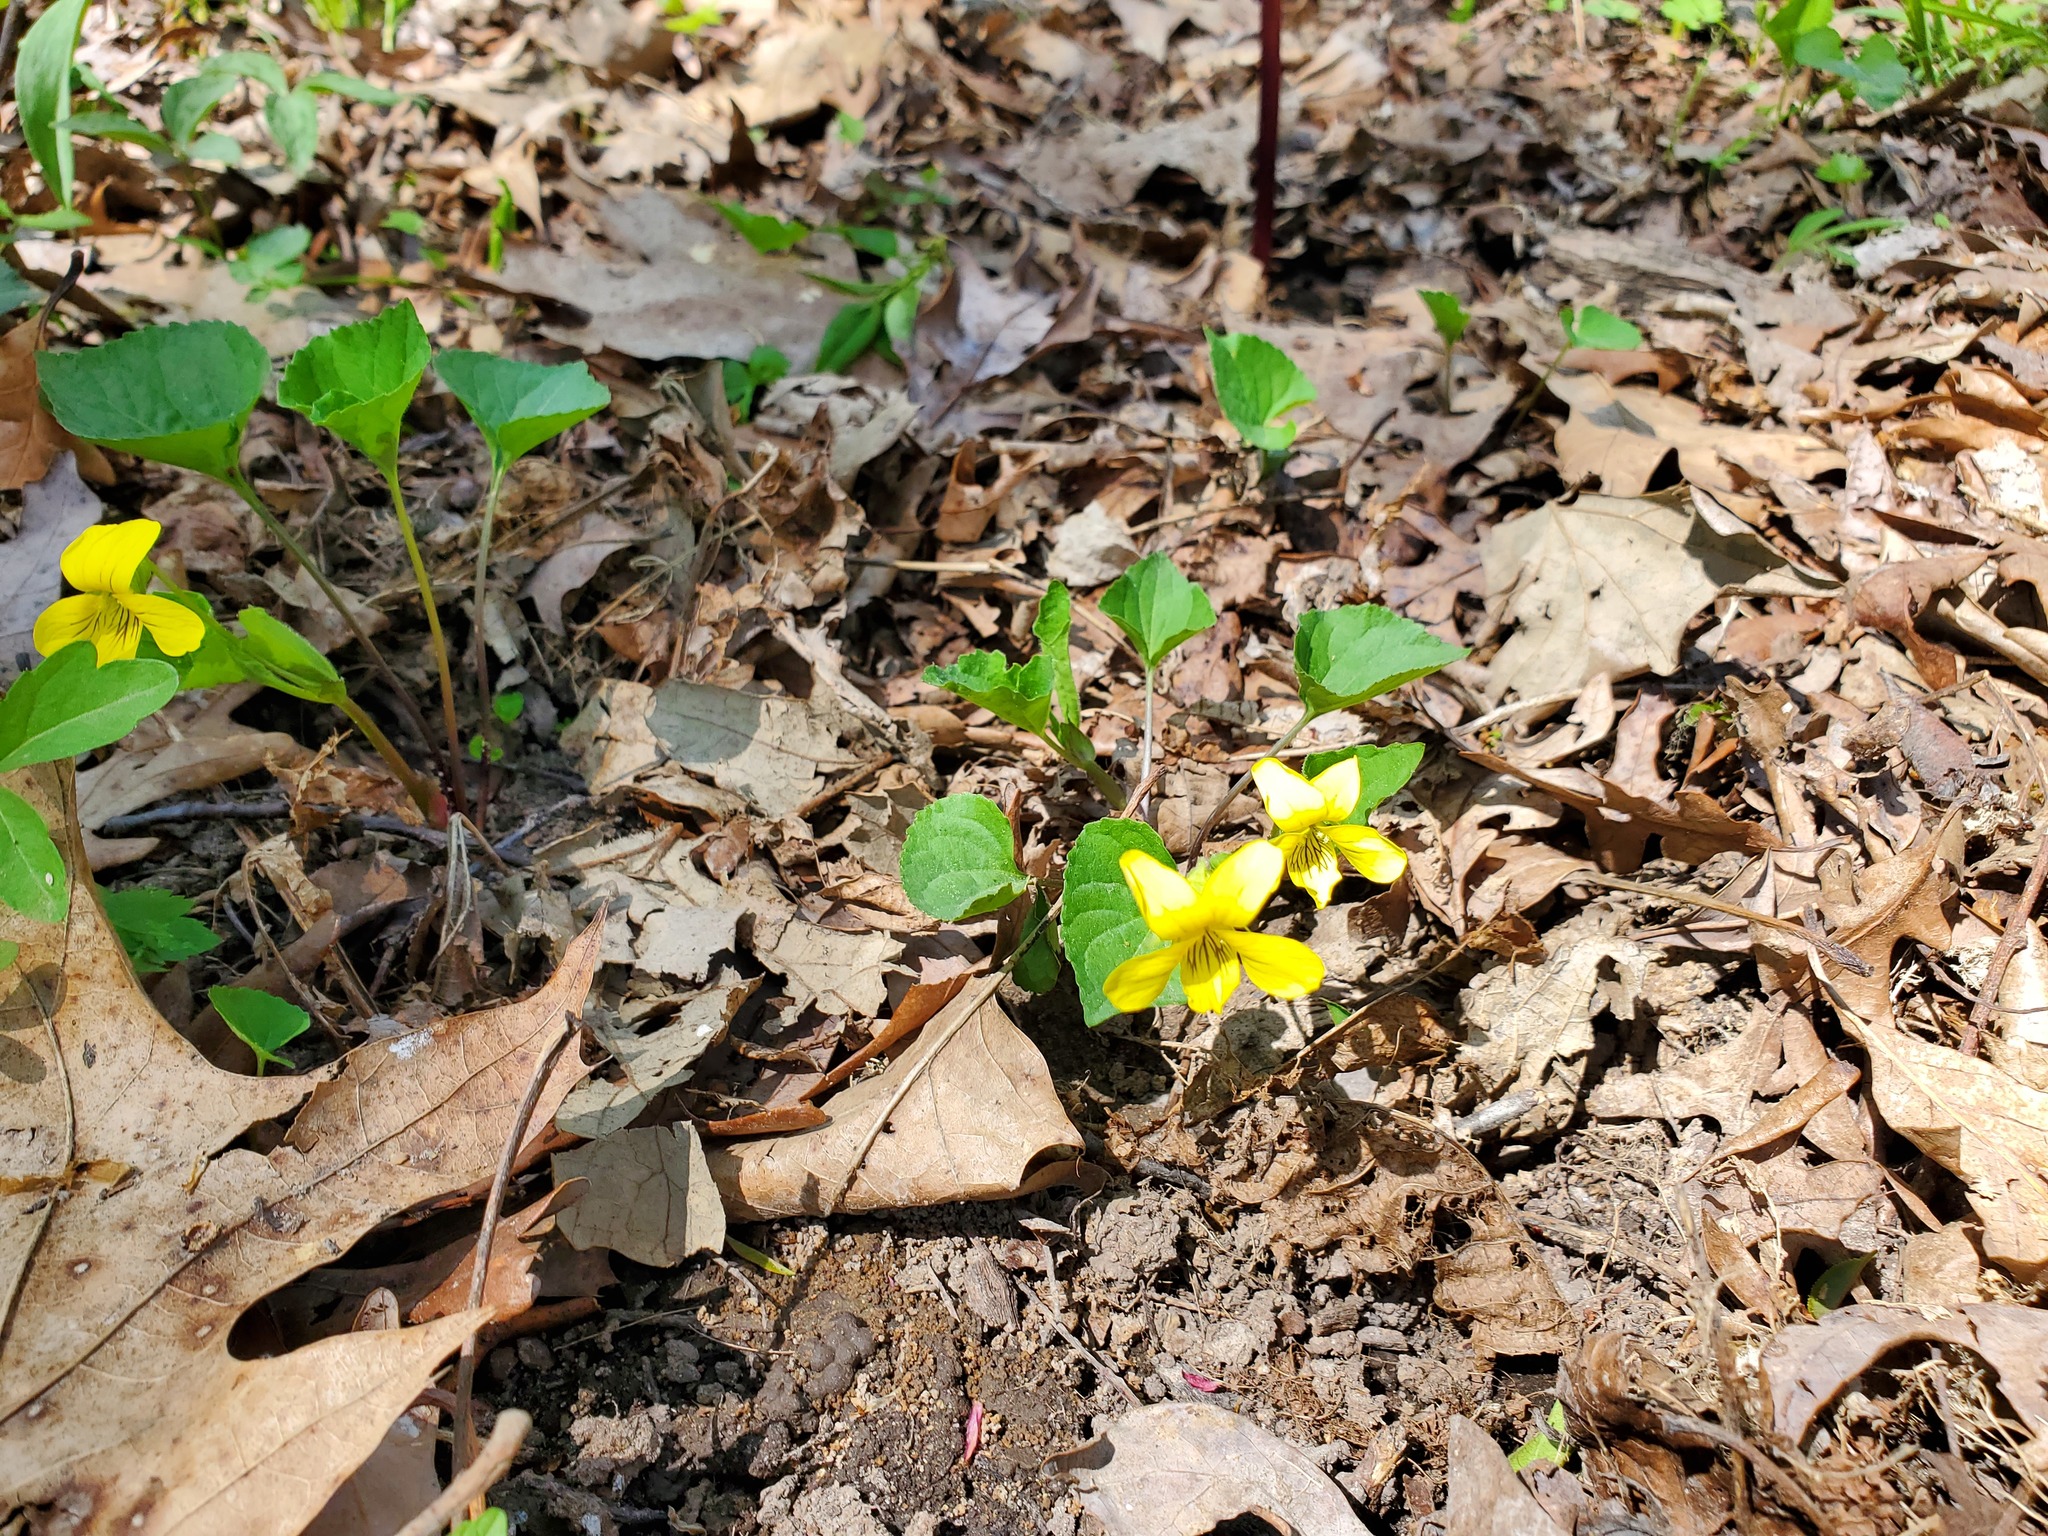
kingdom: Plantae
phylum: Tracheophyta
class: Magnoliopsida
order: Malpighiales
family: Violaceae
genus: Viola
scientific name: Viola eriocarpa
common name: Smooth yellow violet
